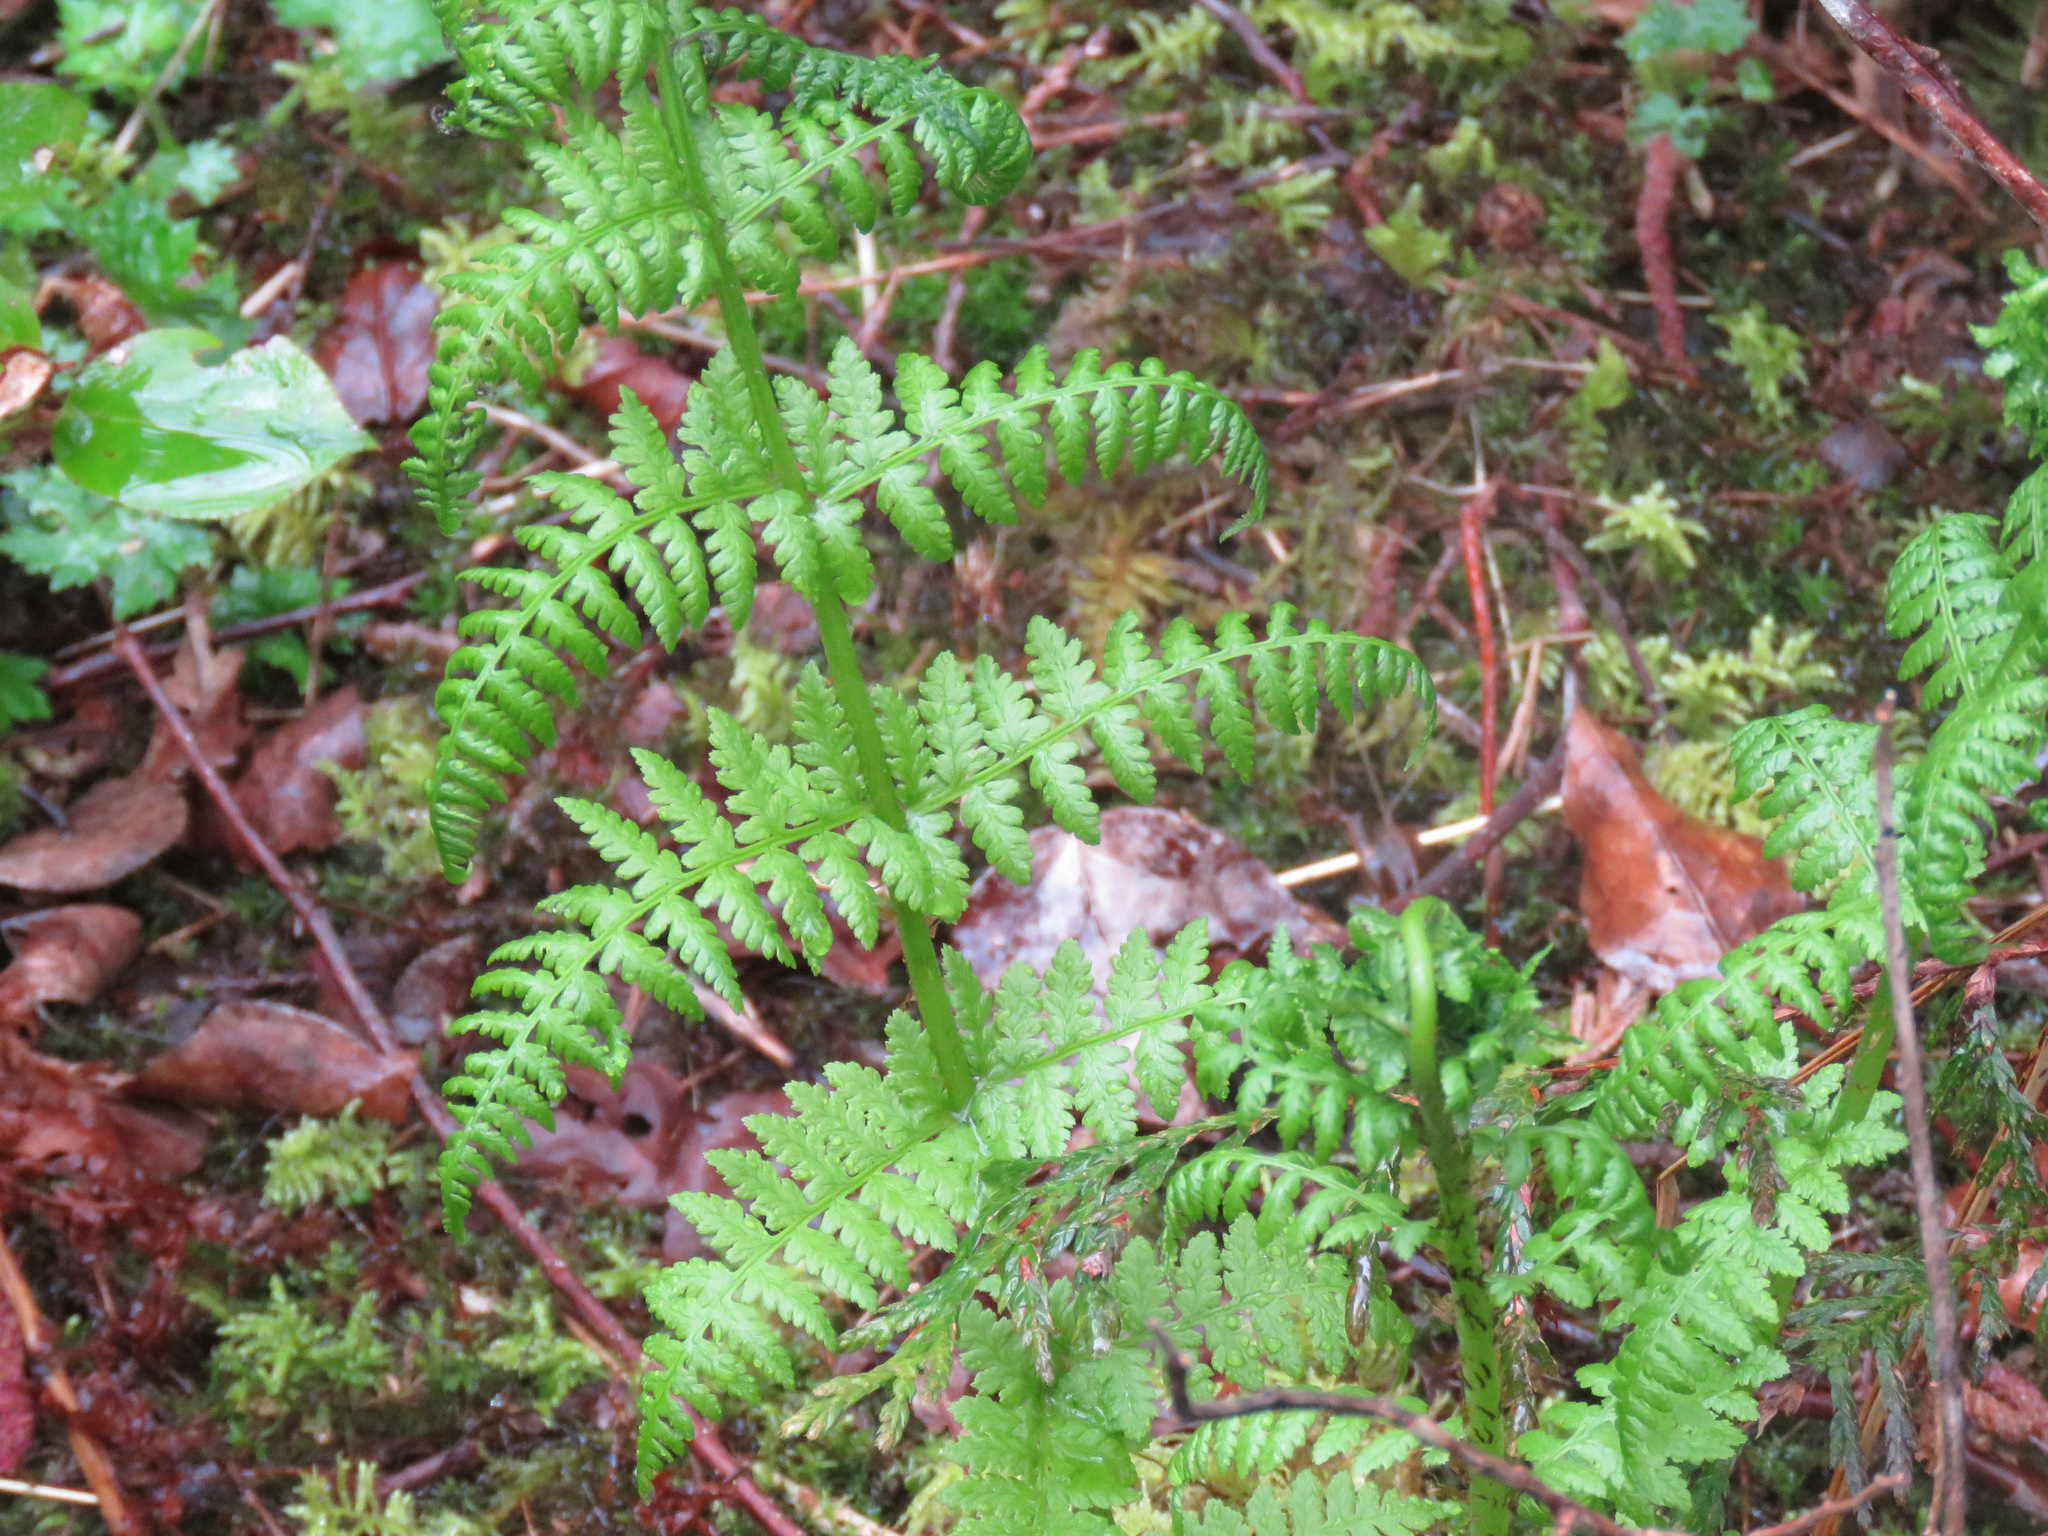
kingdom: Plantae
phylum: Tracheophyta
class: Polypodiopsida
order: Polypodiales
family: Athyriaceae
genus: Athyrium
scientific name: Athyrium filix-femina
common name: Lady fern
